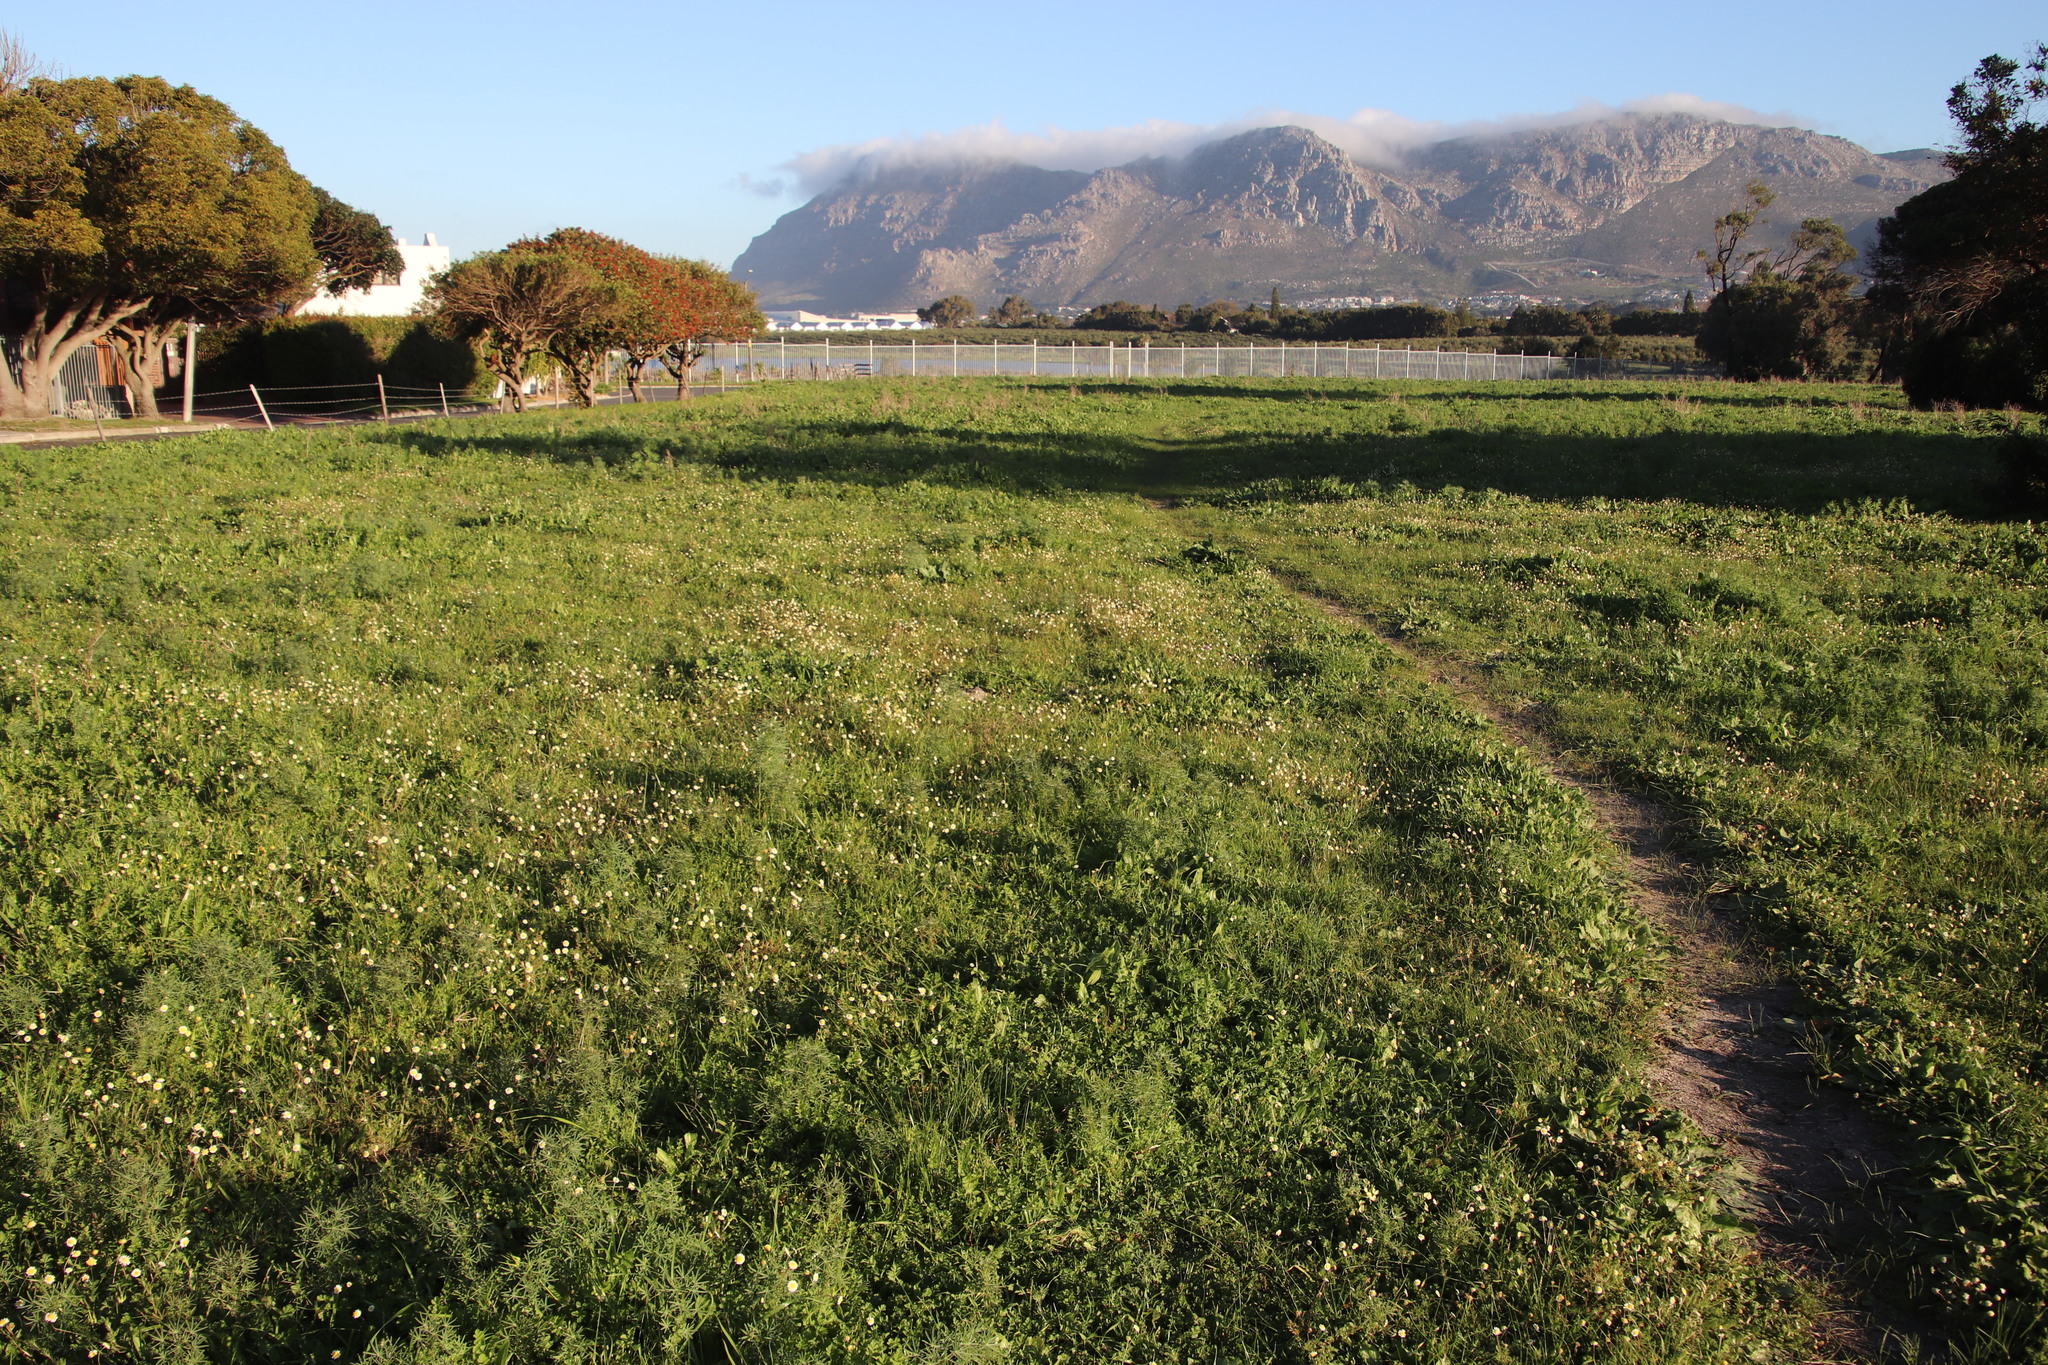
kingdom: Plantae
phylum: Tracheophyta
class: Magnoliopsida
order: Asterales
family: Asteraceae
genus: Cotula
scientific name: Cotula turbinata
